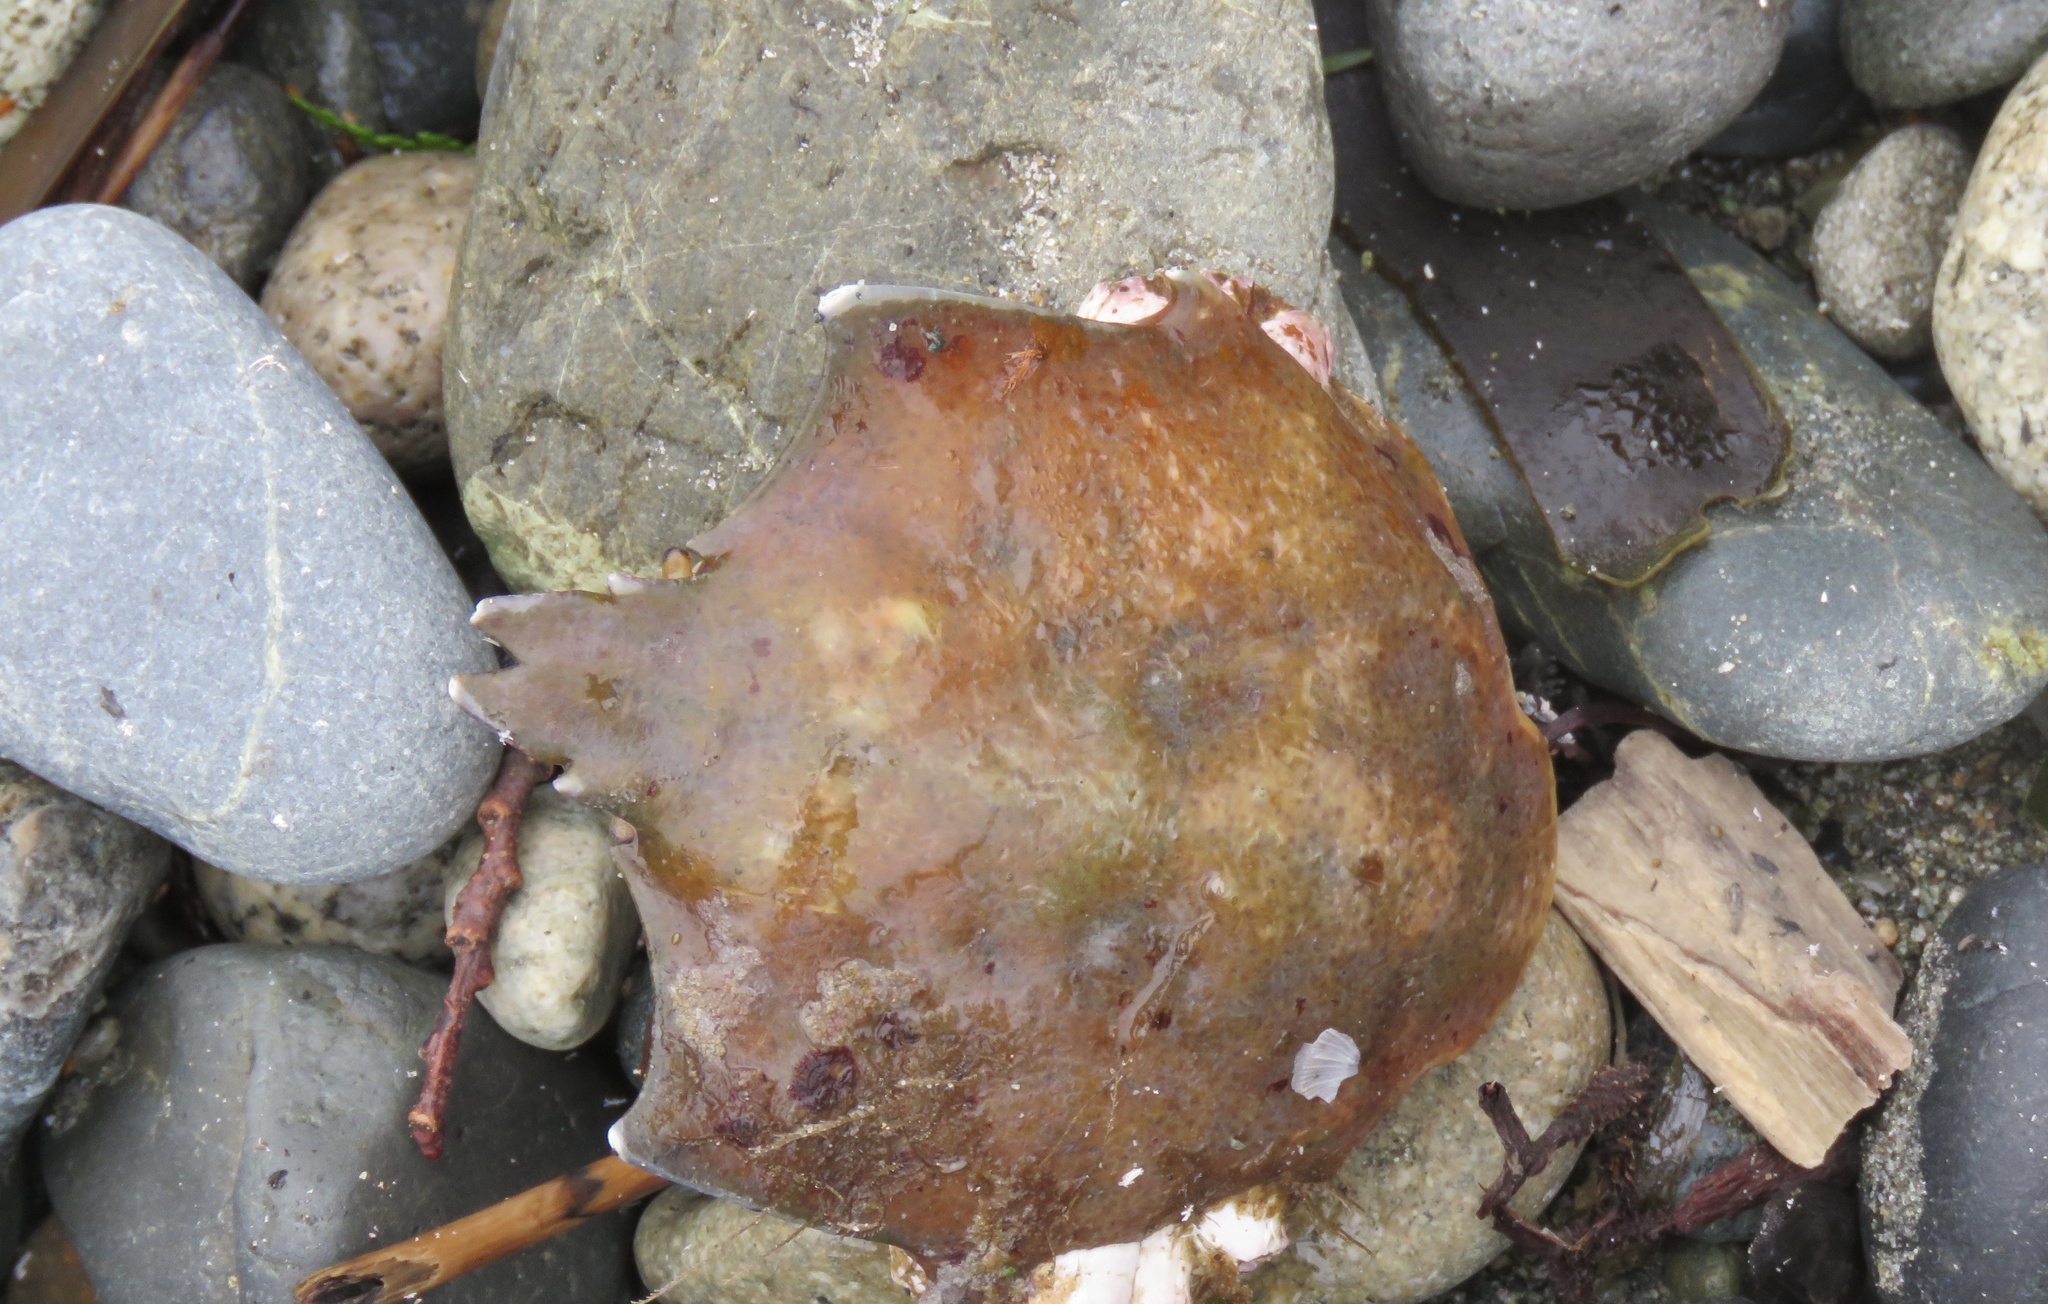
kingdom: Animalia
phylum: Arthropoda
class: Malacostraca
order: Decapoda
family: Epialtidae
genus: Pugettia
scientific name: Pugettia producta
